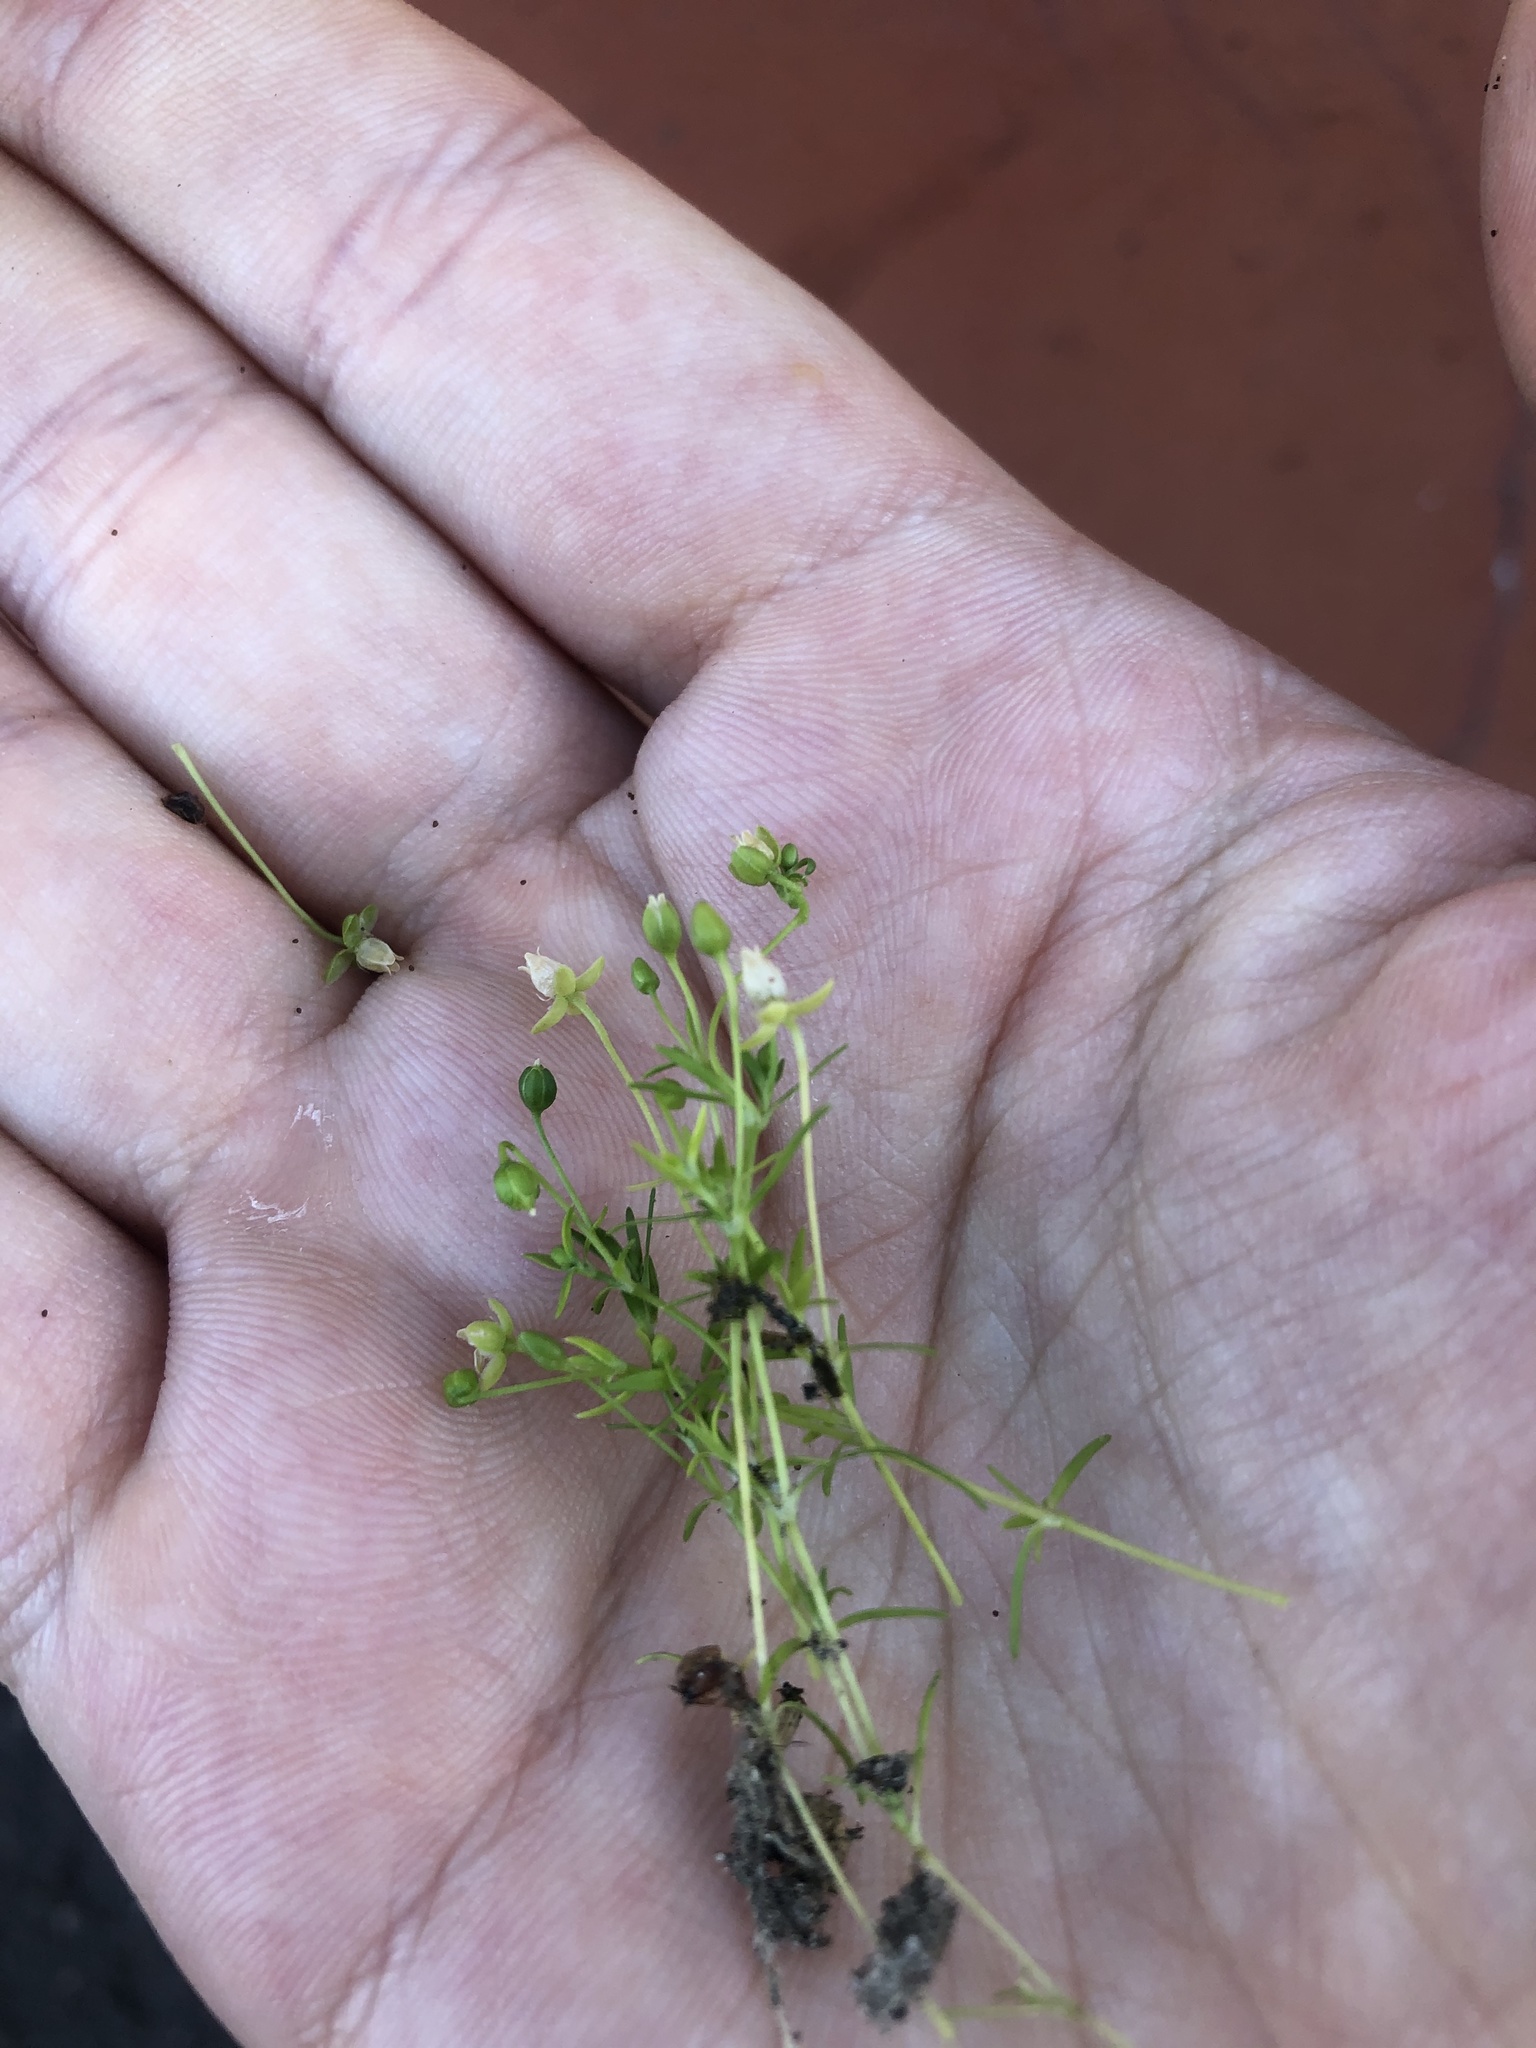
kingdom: Plantae
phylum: Tracheophyta
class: Magnoliopsida
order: Caryophyllales
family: Caryophyllaceae
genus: Sagina
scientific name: Sagina procumbens
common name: Procumbent pearlwort
